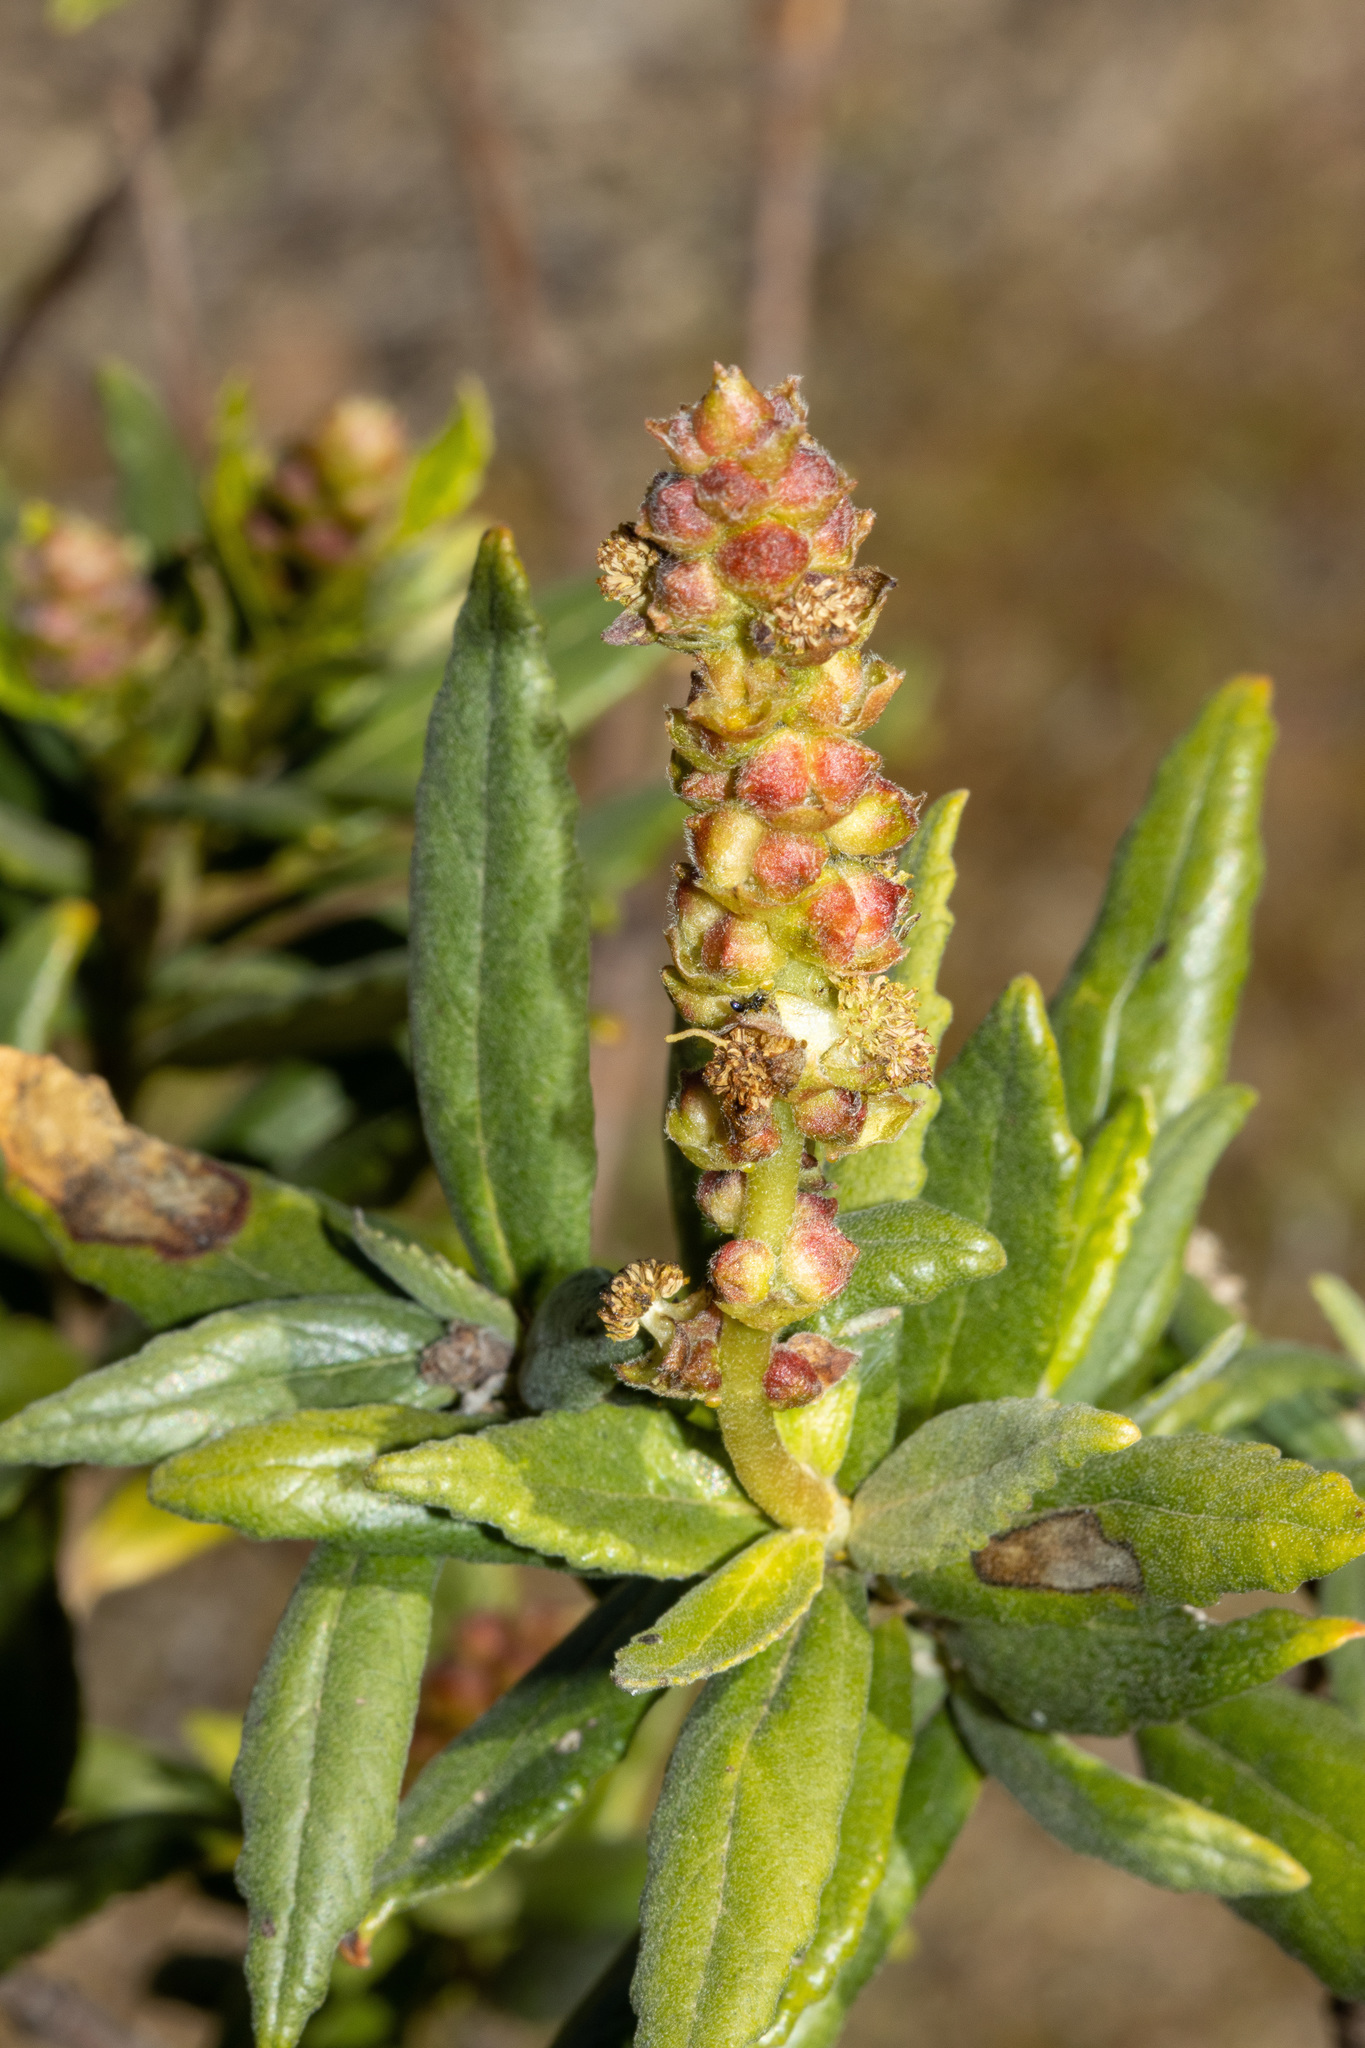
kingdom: Plantae
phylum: Tracheophyta
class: Magnoliopsida
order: Malpighiales
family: Euphorbiaceae
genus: Adriana
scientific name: Adriana quadripartita
